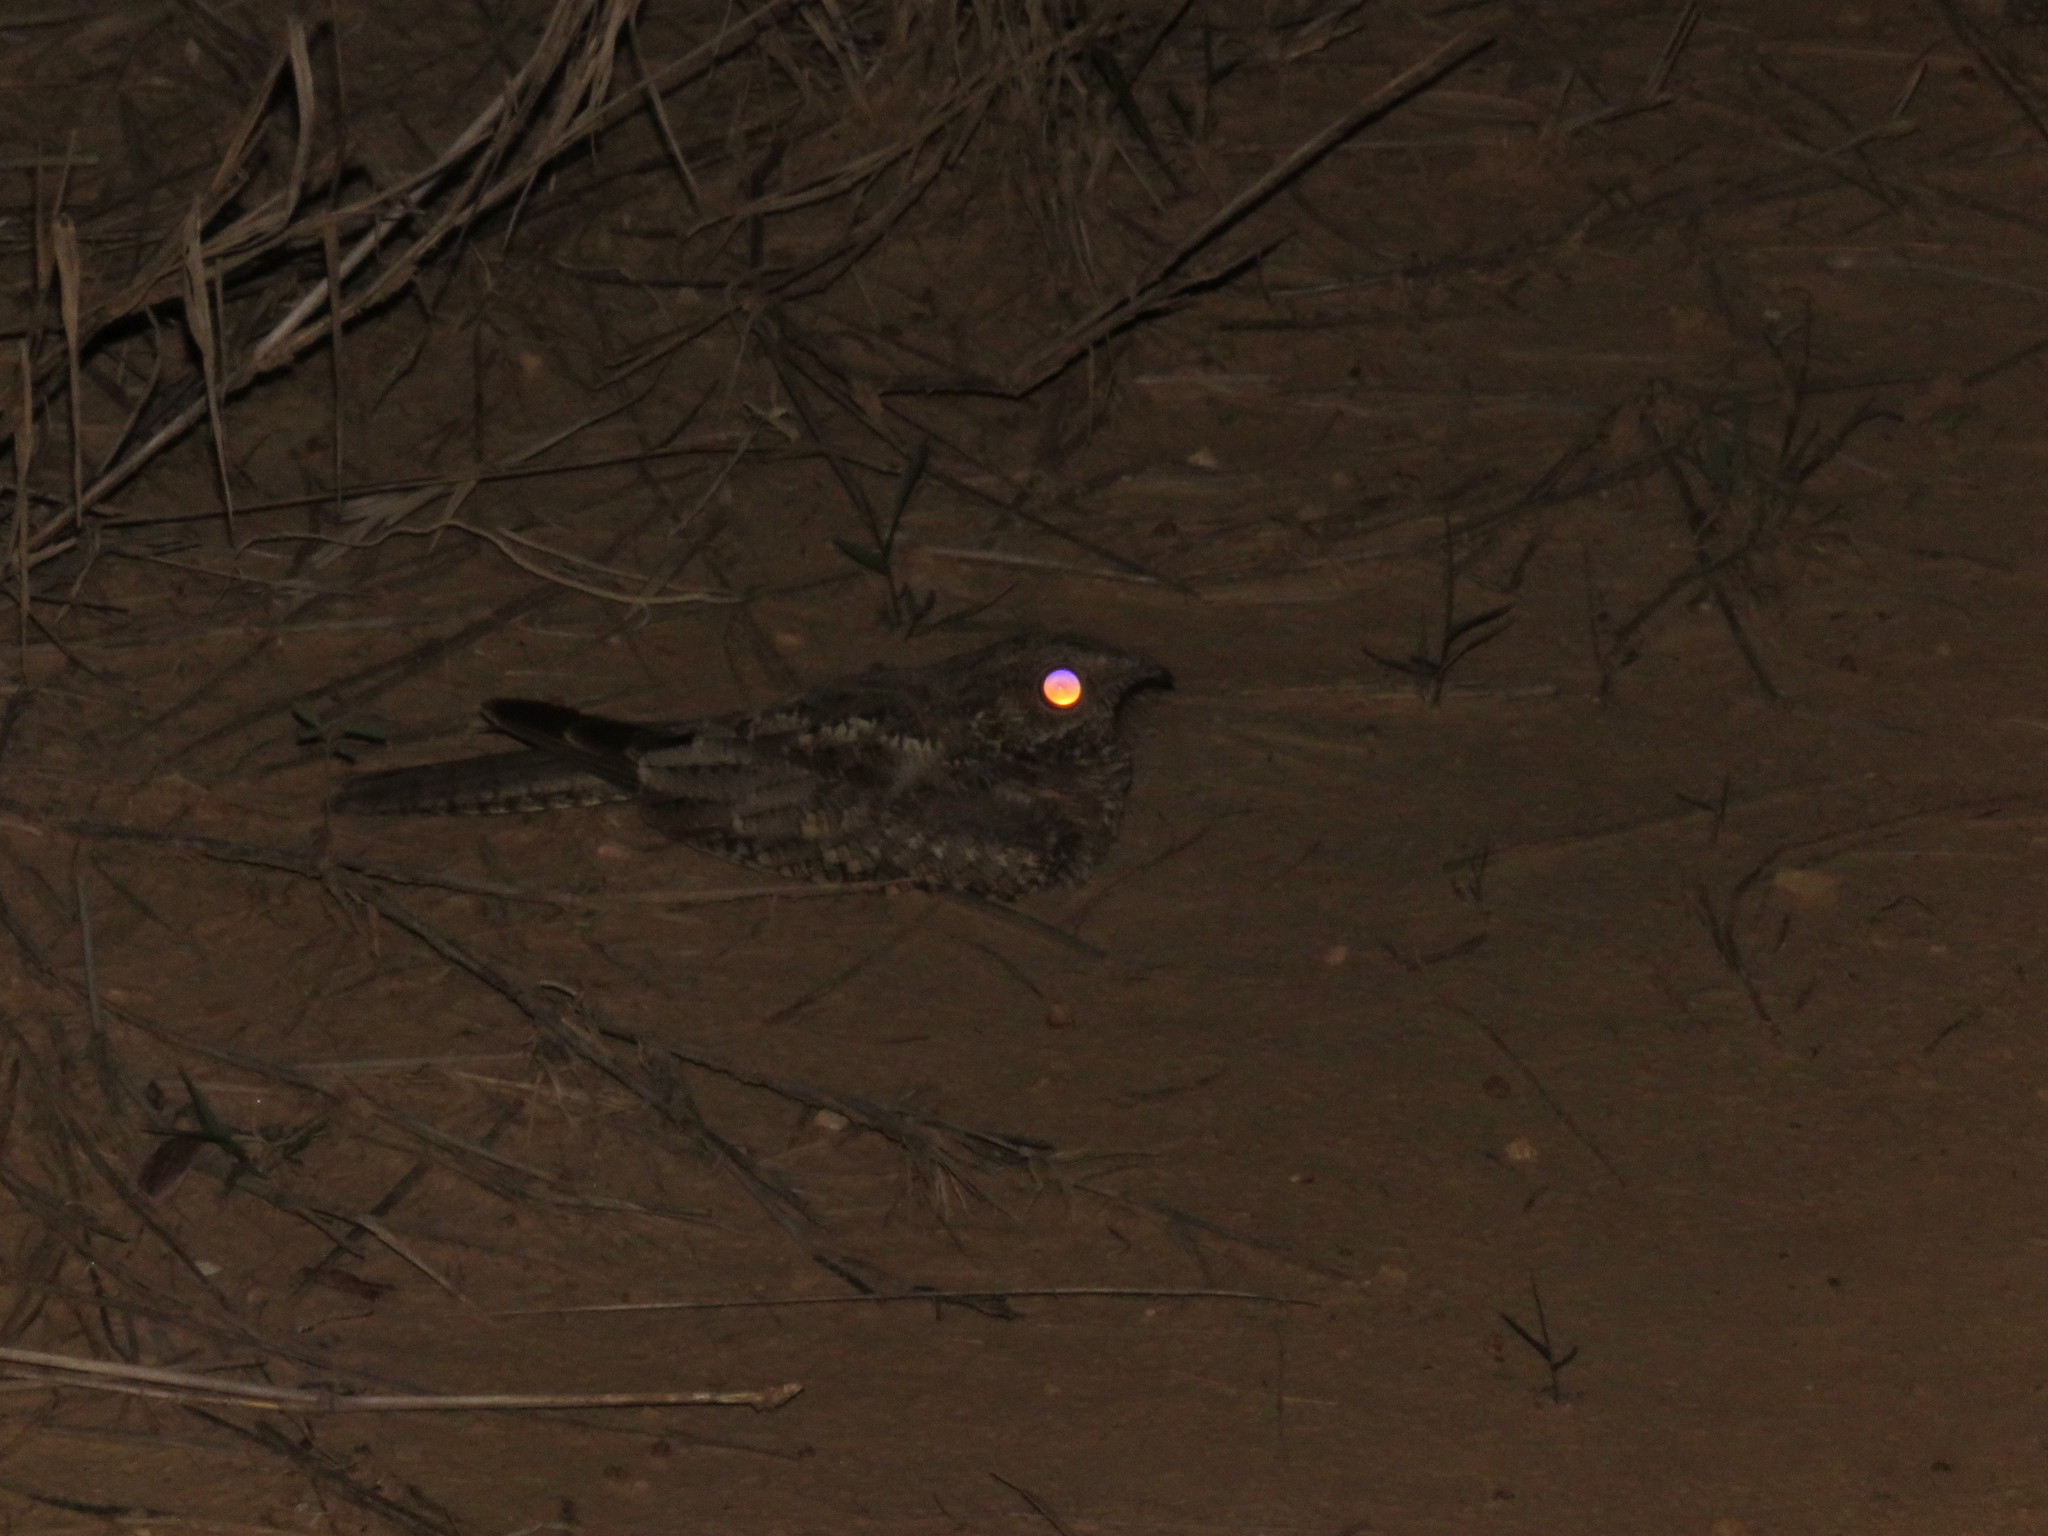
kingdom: Animalia
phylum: Chordata
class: Aves
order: Caprimulgiformes
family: Caprimulgidae
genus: Hydropsalis
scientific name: Hydropsalis climacocerca
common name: Ladder-tailed nightjar
